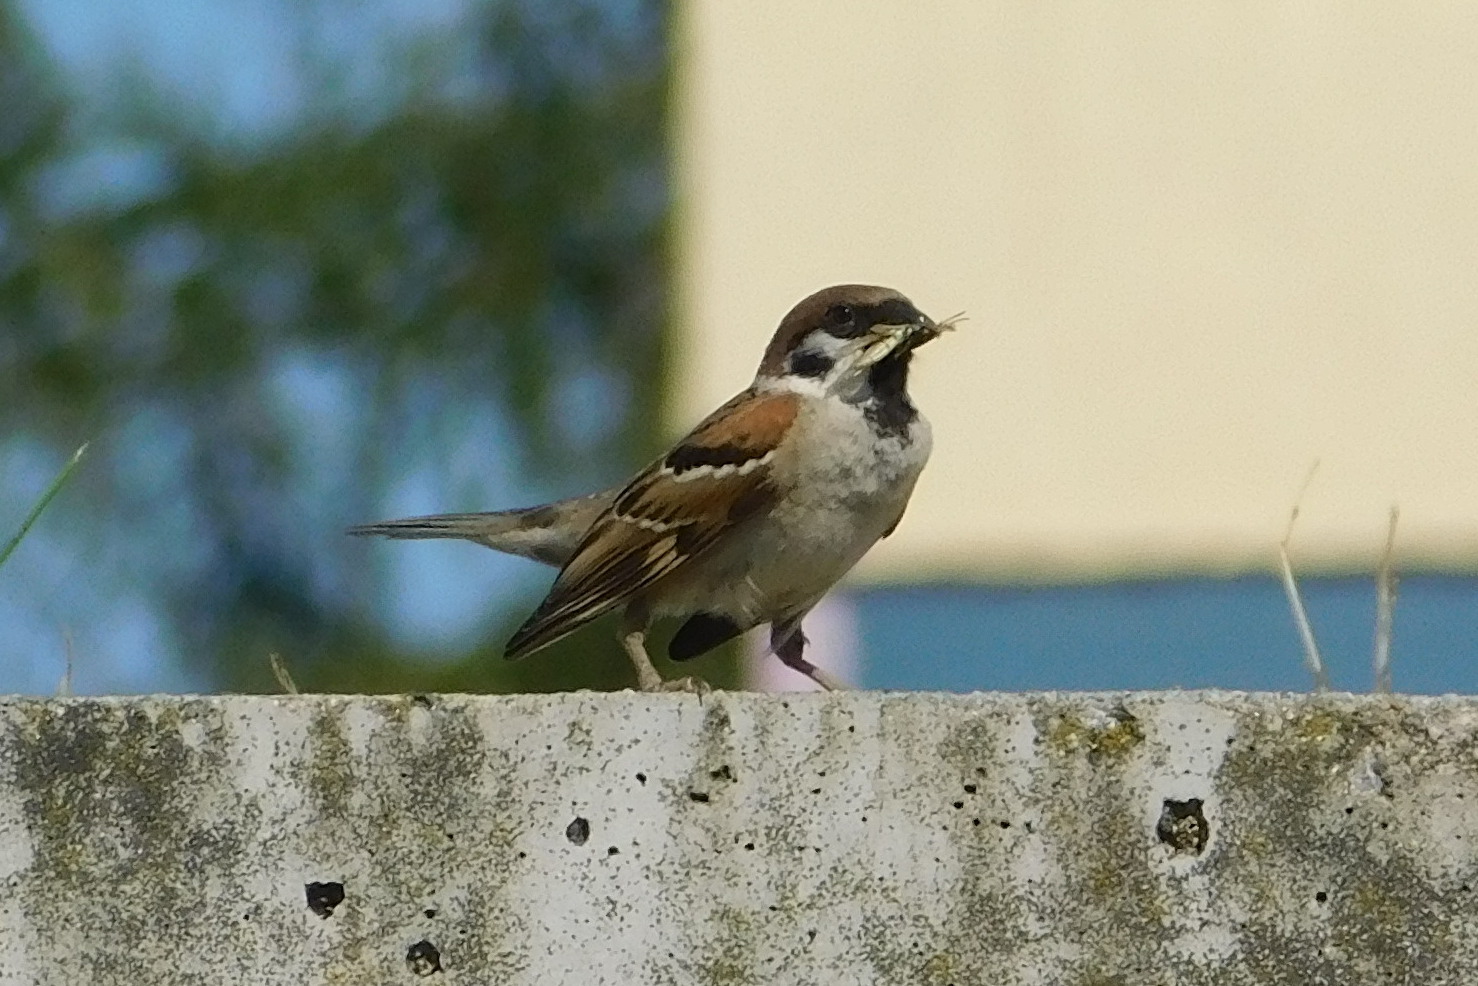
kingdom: Animalia
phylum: Chordata
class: Aves
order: Passeriformes
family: Passeridae
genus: Passer
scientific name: Passer montanus
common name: Eurasian tree sparrow
